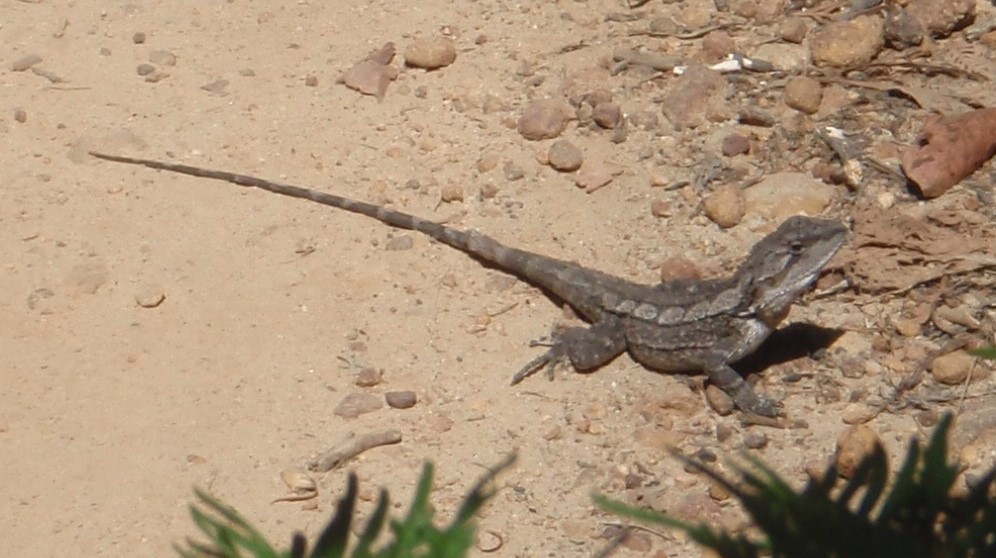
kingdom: Animalia
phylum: Chordata
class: Squamata
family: Agamidae
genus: Amphibolurus
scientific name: Amphibolurus muricatus
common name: Jacky lizard
